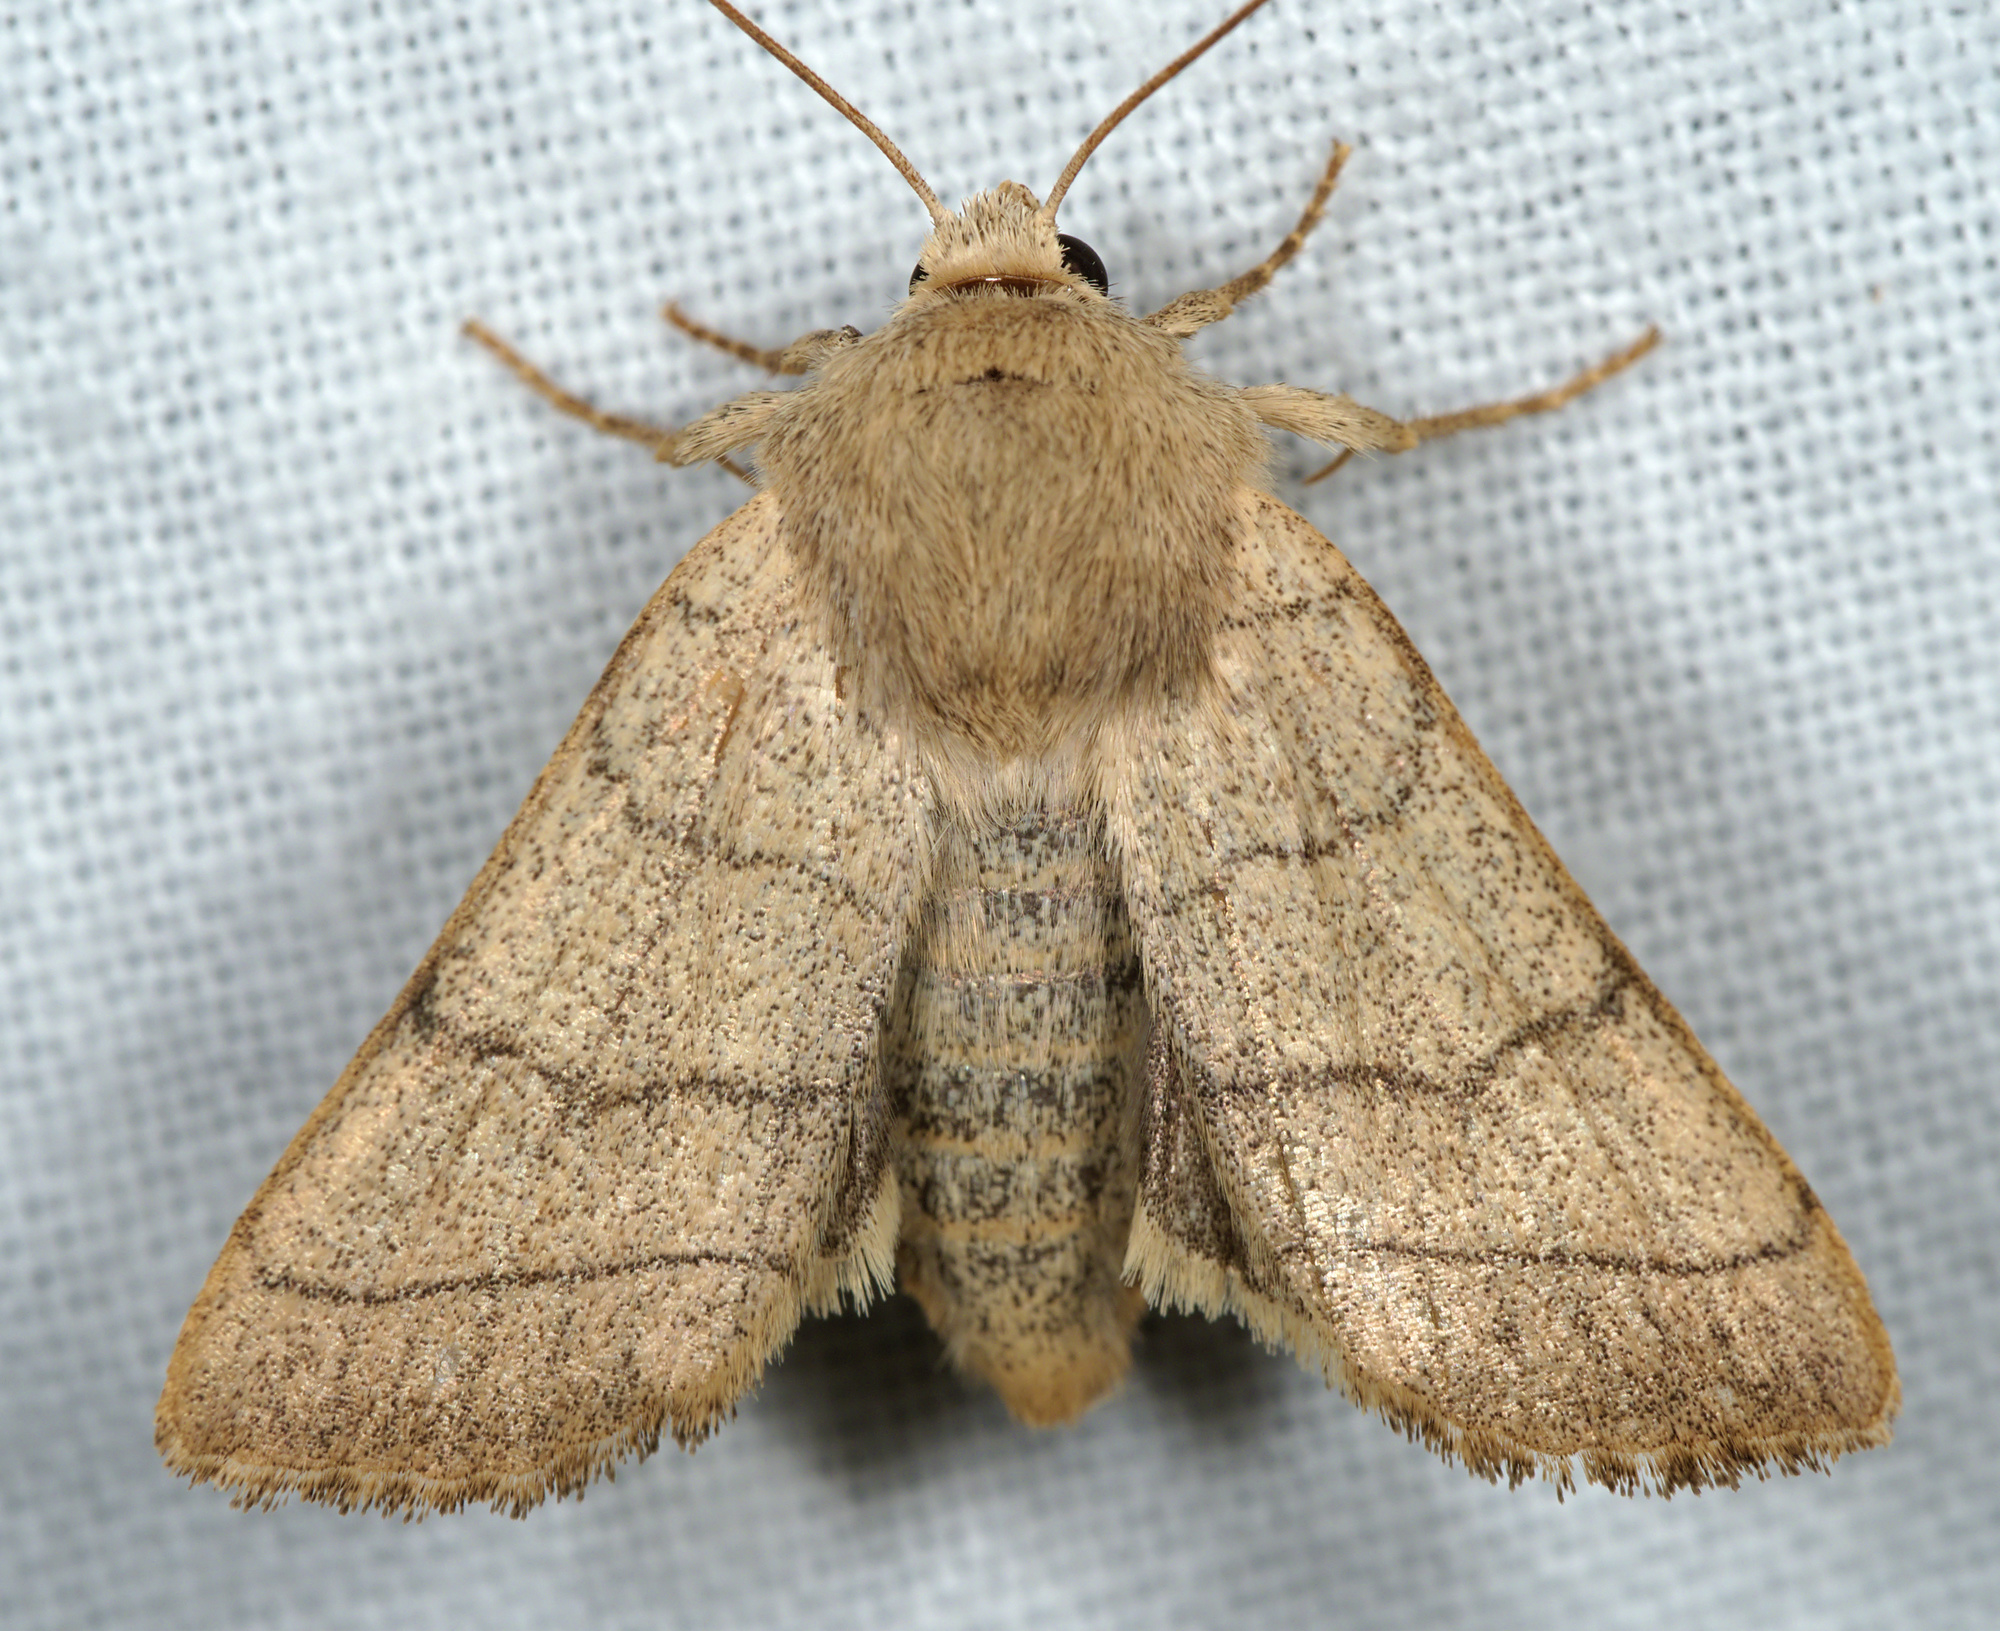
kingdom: Animalia
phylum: Arthropoda
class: Insecta
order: Lepidoptera
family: Noctuidae
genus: Charanyca
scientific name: Charanyca trigrammica
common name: Treble lines
